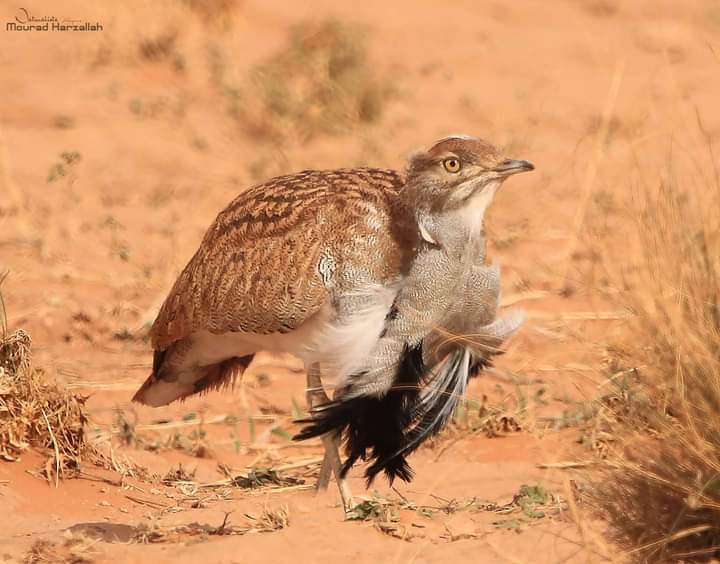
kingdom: Animalia
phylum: Chordata
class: Aves
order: Otidiformes
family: Otididae
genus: Chlamydotis
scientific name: Chlamydotis undulata
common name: Houbara bustard
